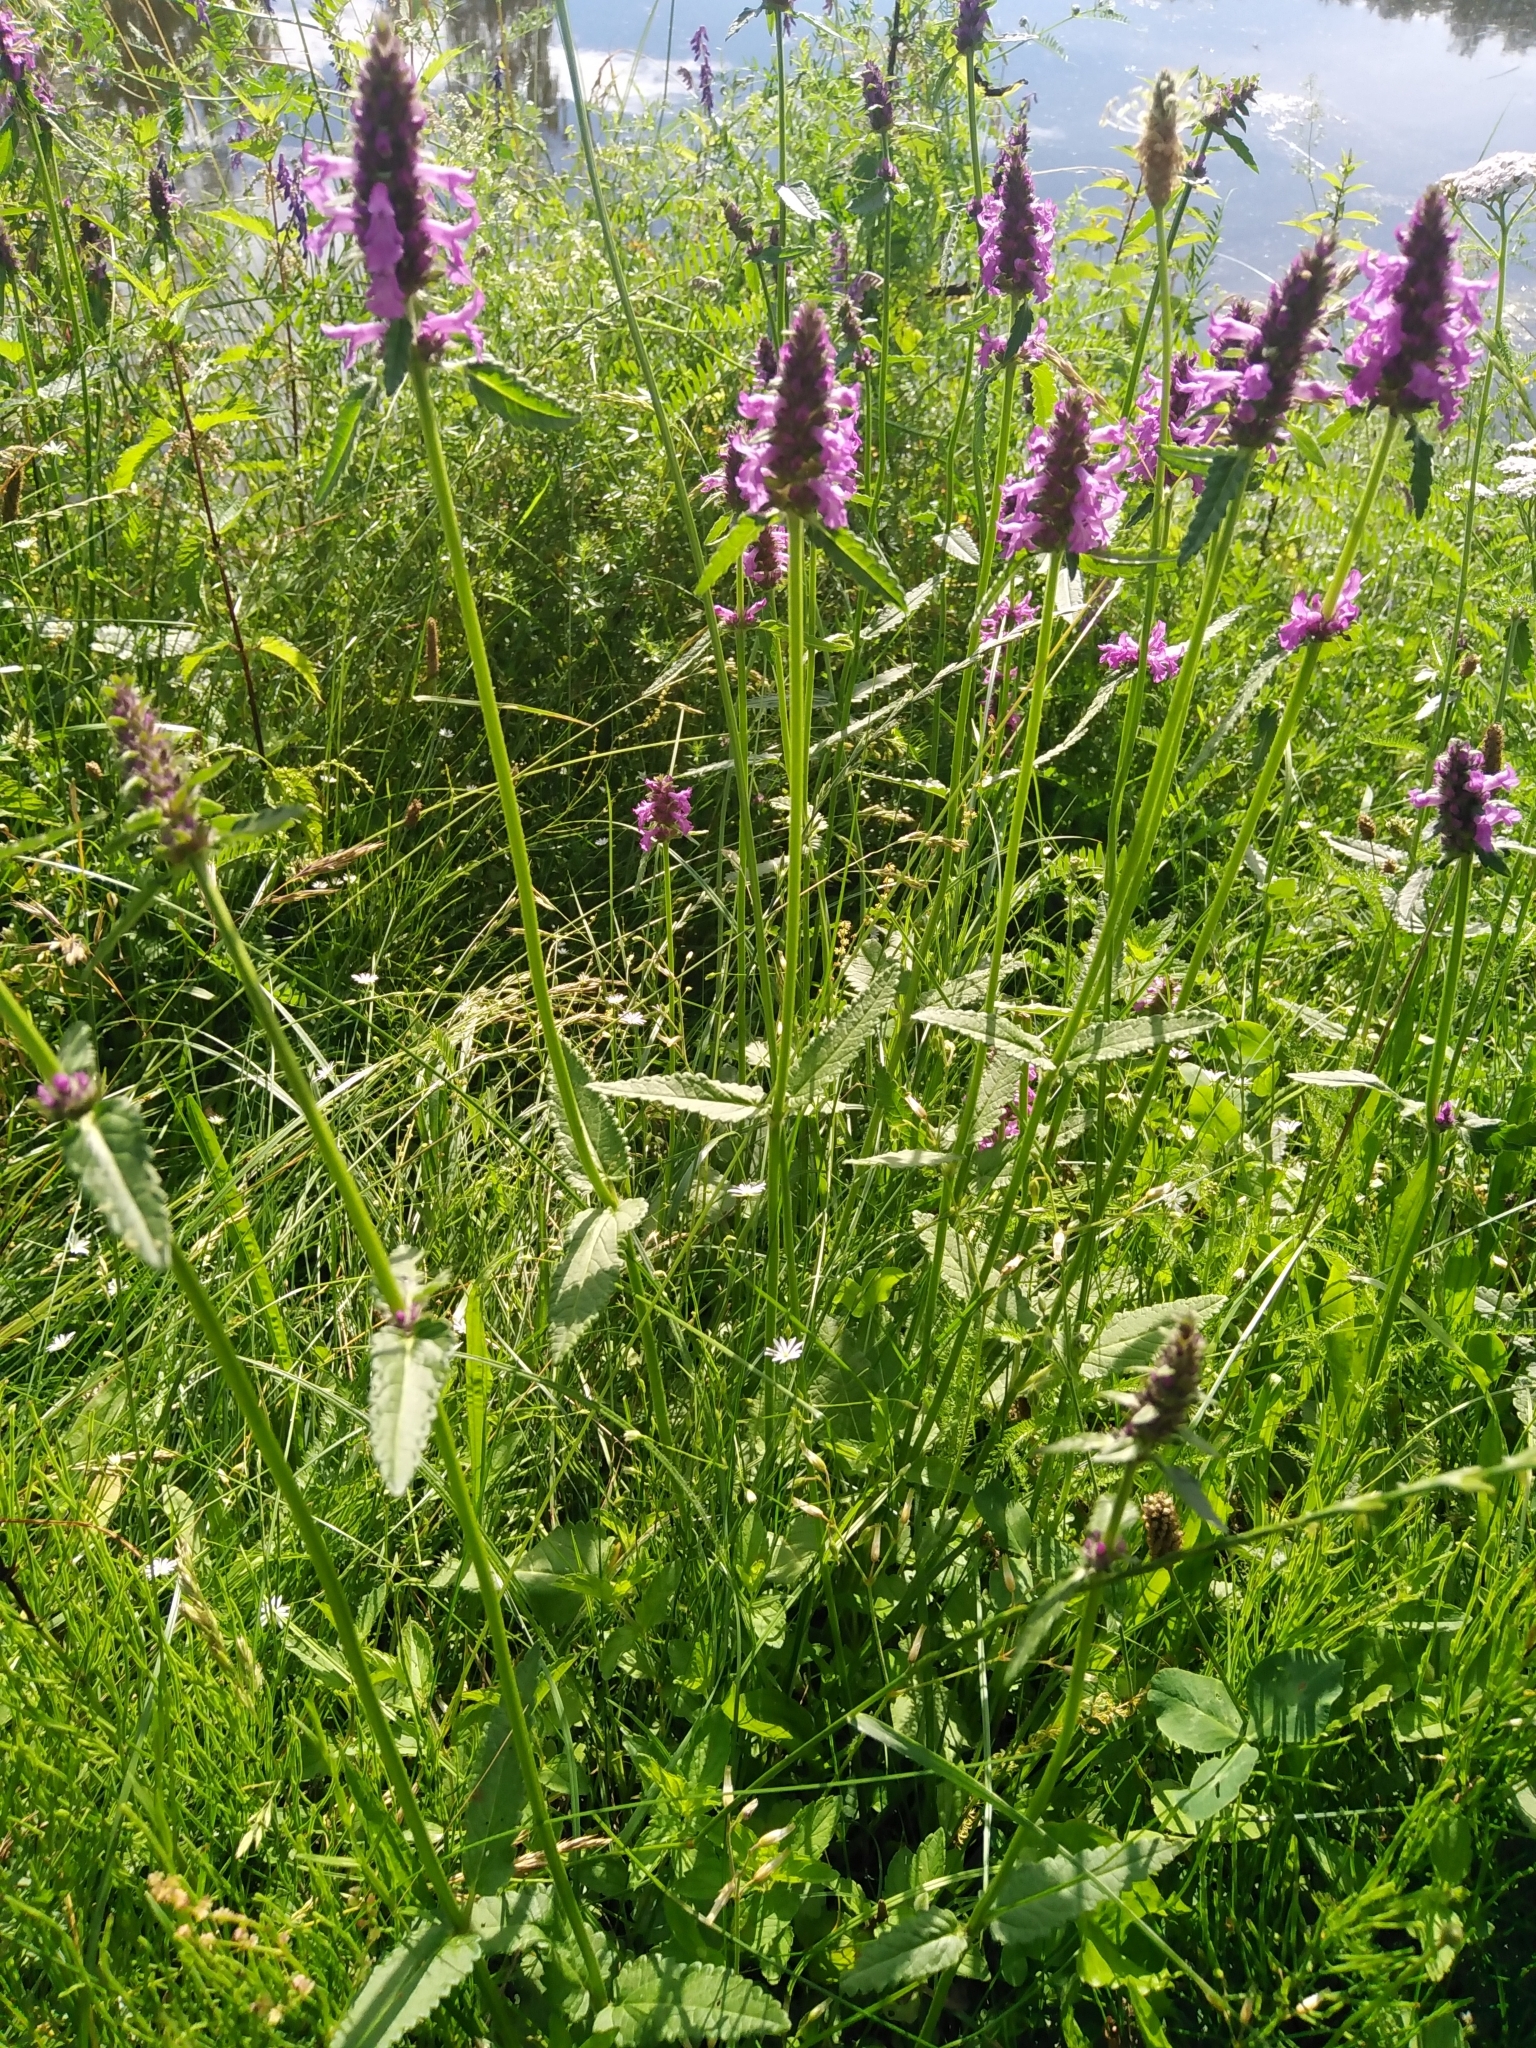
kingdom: Plantae
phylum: Tracheophyta
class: Magnoliopsida
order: Lamiales
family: Lamiaceae
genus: Betonica
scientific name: Betonica officinalis
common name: Bishop's-wort
